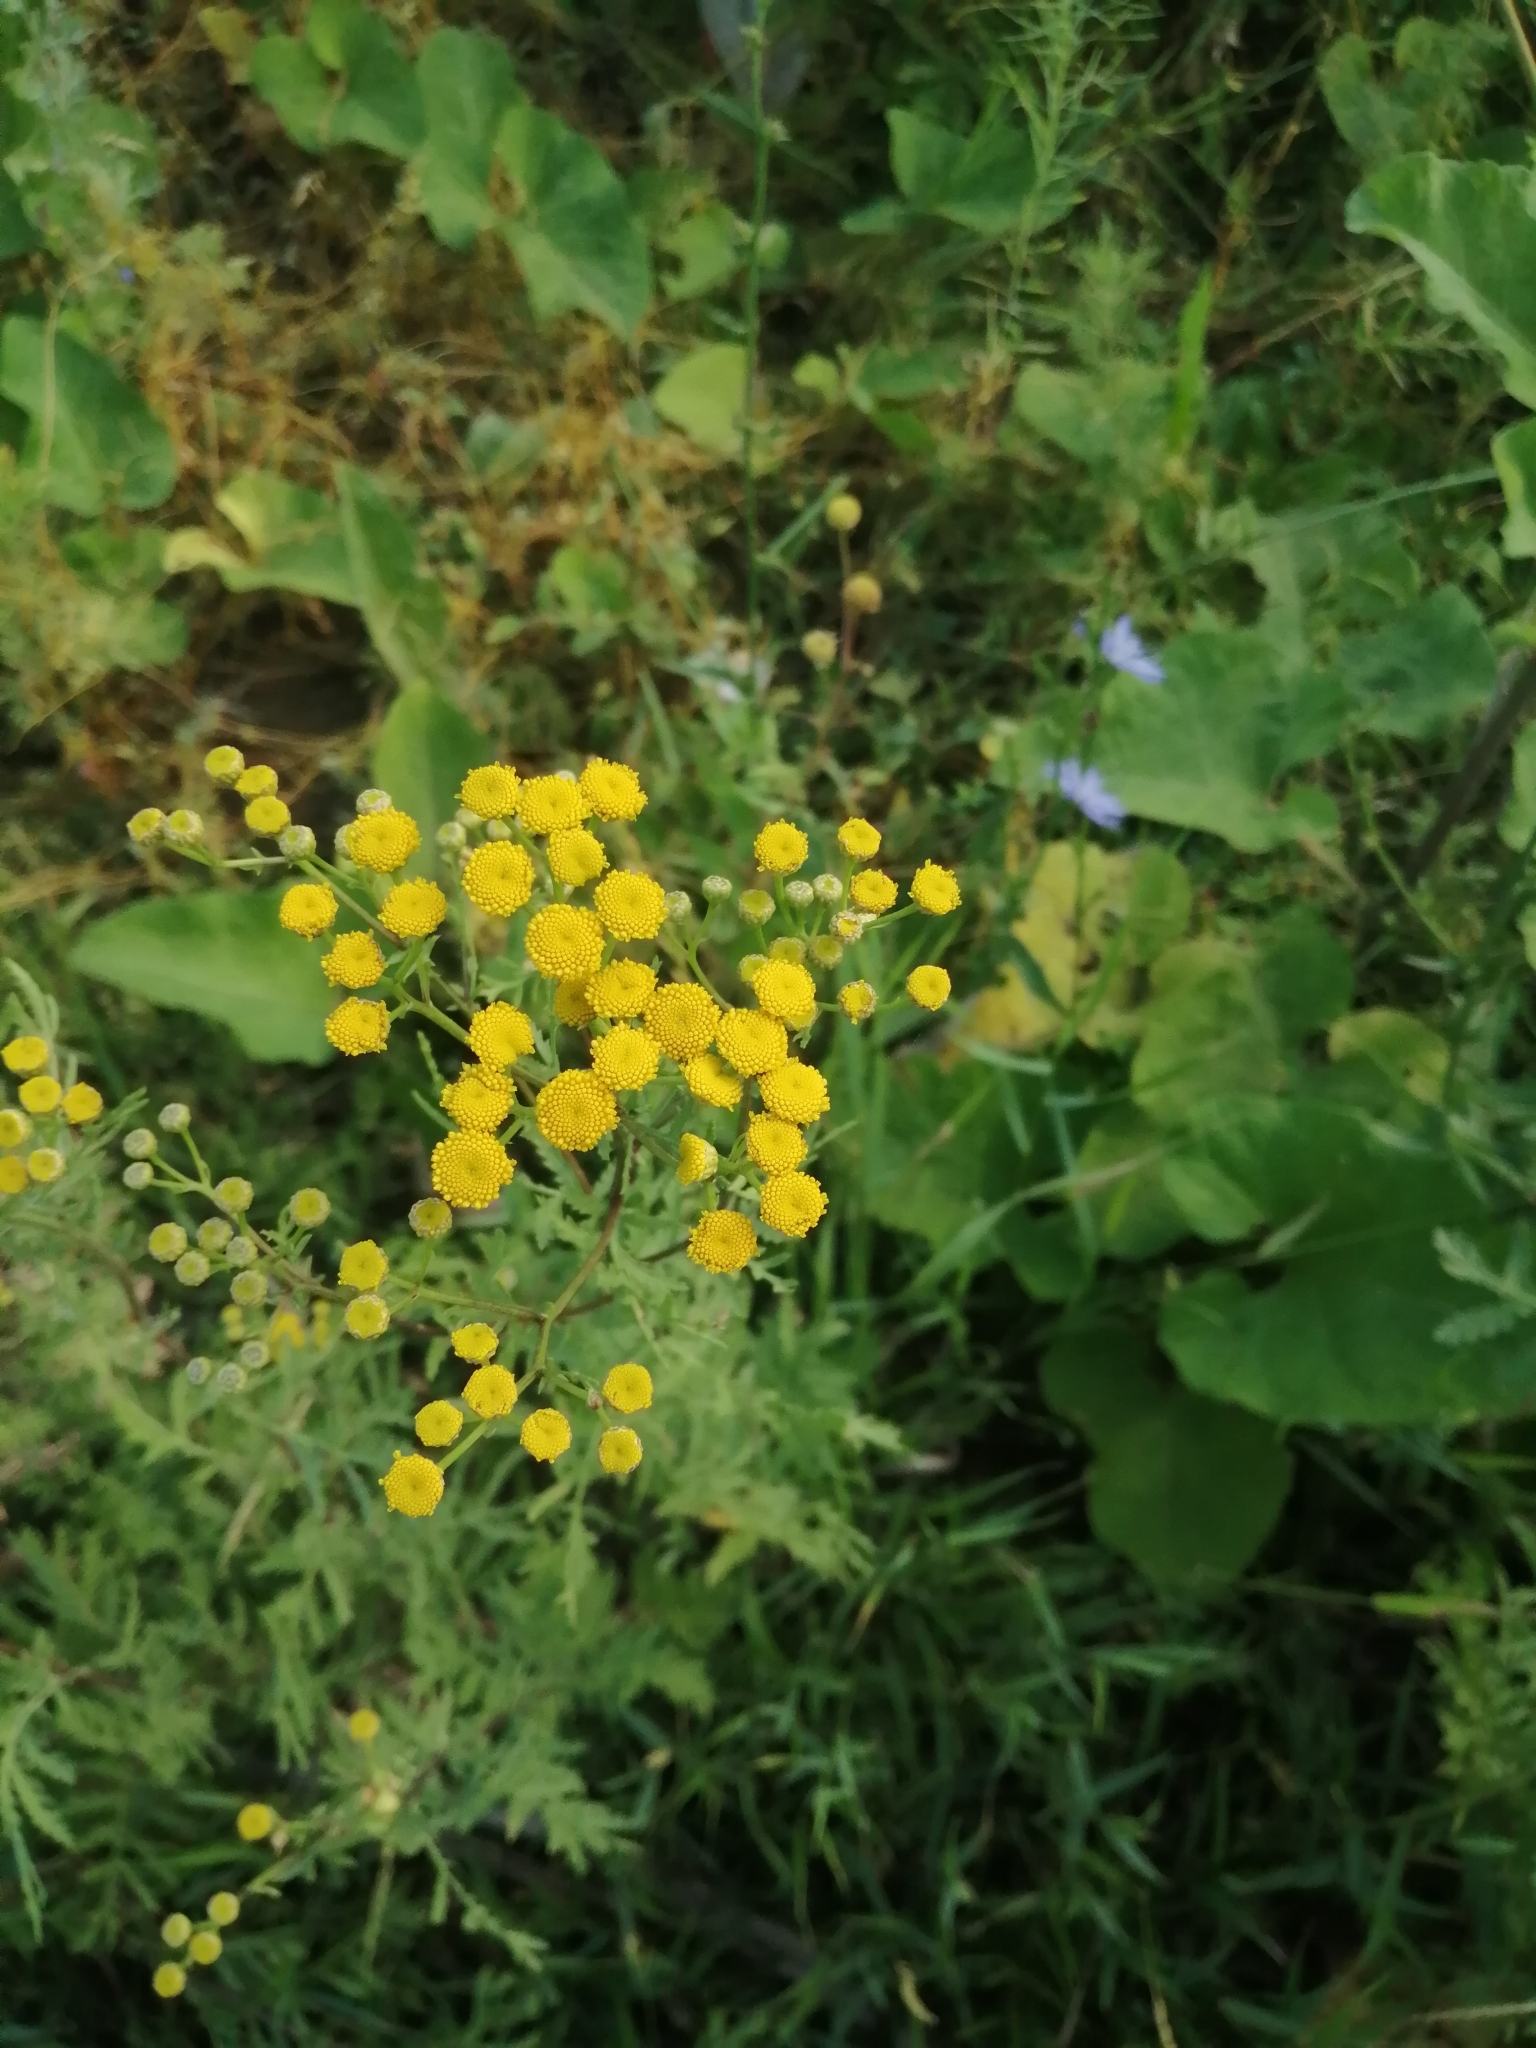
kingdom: Plantae
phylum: Tracheophyta
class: Magnoliopsida
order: Asterales
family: Asteraceae
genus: Tanacetum
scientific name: Tanacetum vulgare
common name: Common tansy
